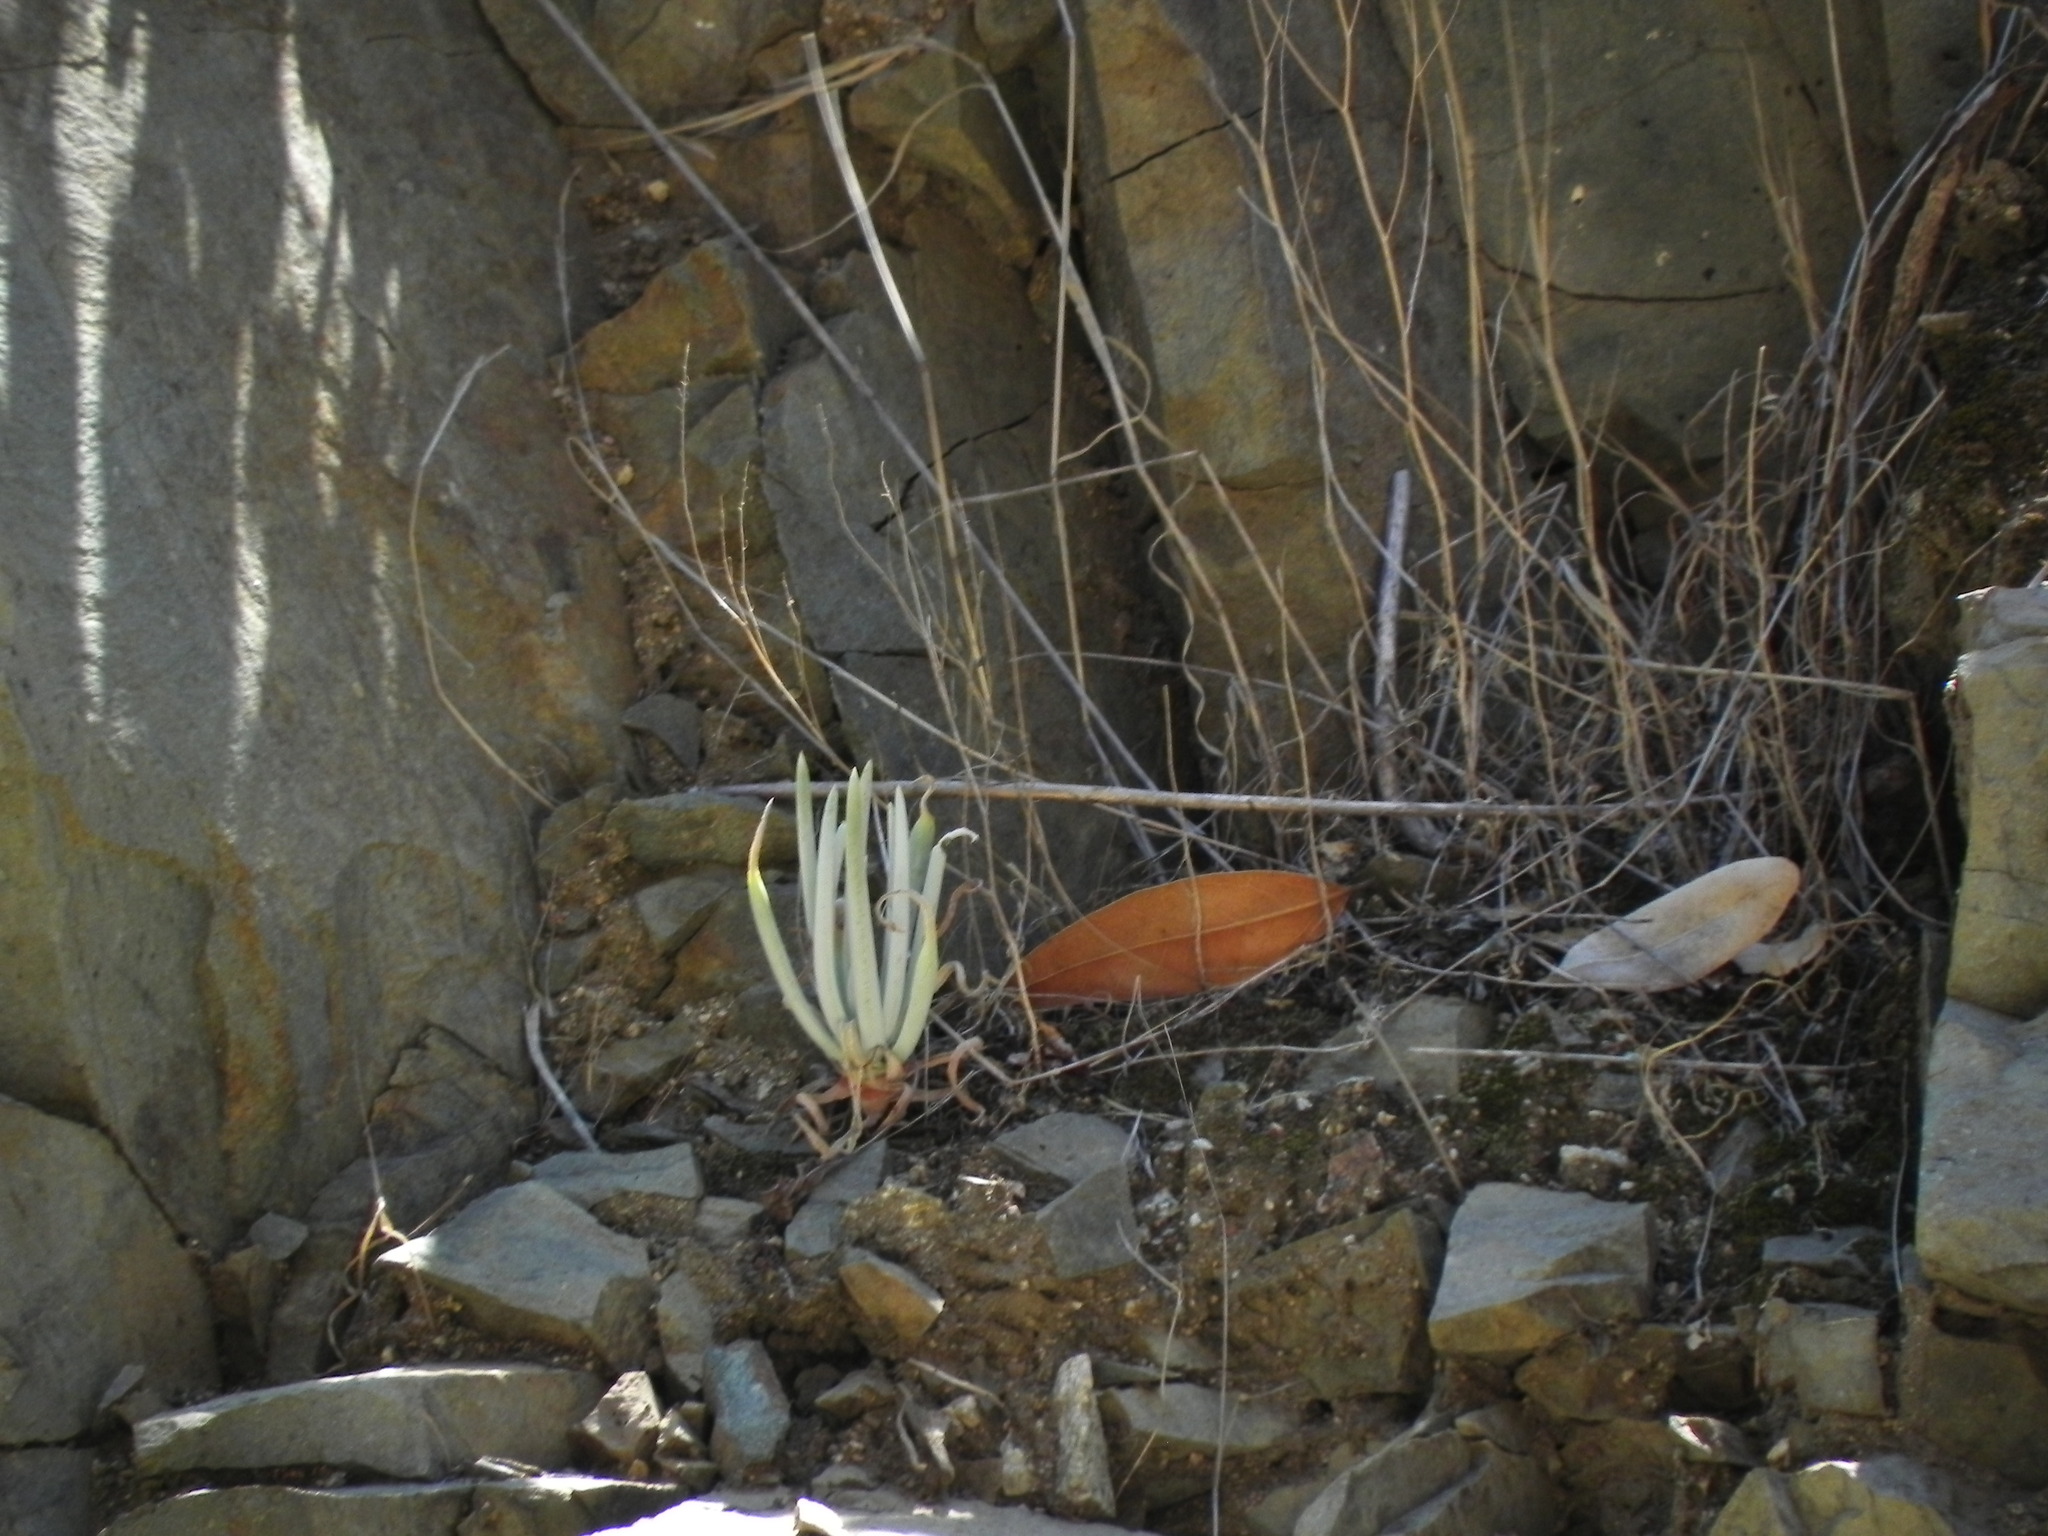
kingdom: Plantae
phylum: Tracheophyta
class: Magnoliopsida
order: Saxifragales
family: Crassulaceae
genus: Dudleya
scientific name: Dudleya densiflora
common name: San gabriel mountains dudleya
